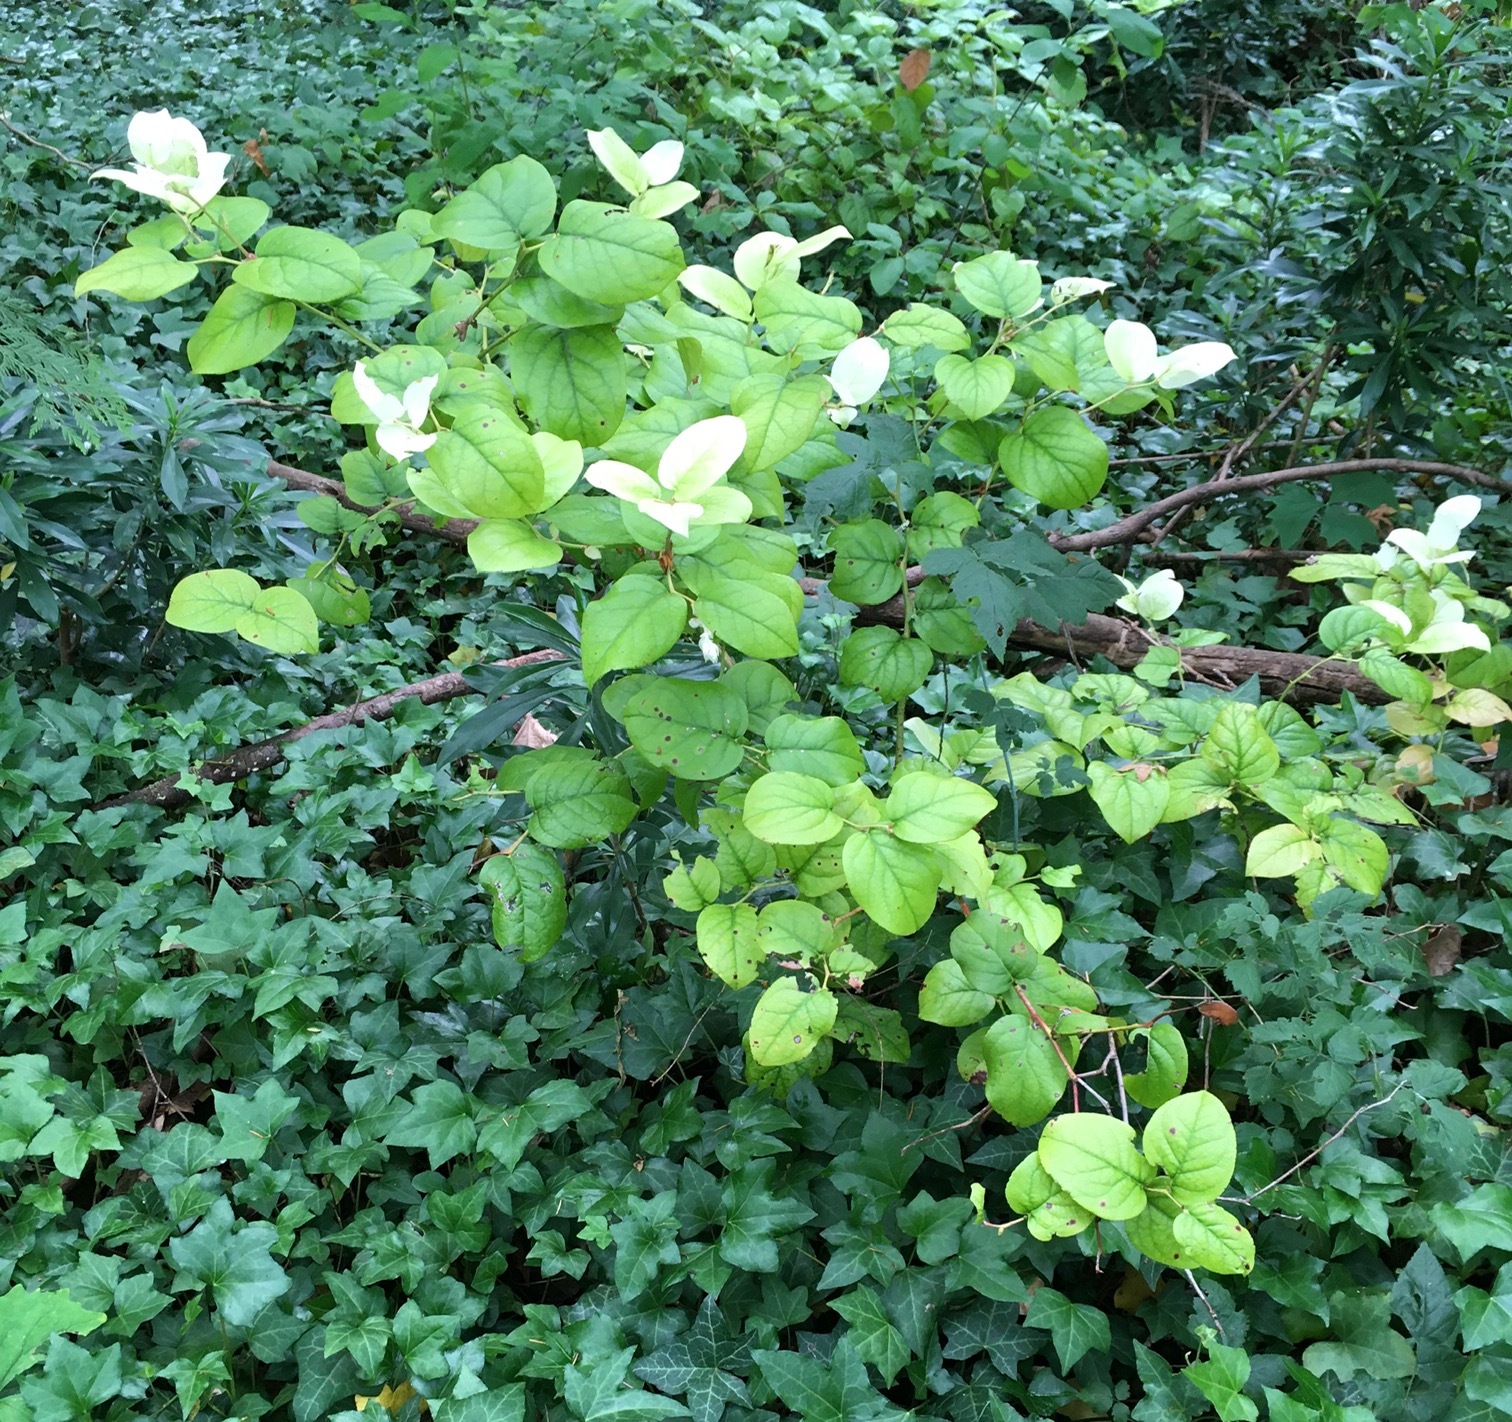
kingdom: Plantae
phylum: Tracheophyta
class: Magnoliopsida
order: Ericales
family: Ericaceae
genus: Gaultheria
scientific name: Gaultheria shallon
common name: Shallon
